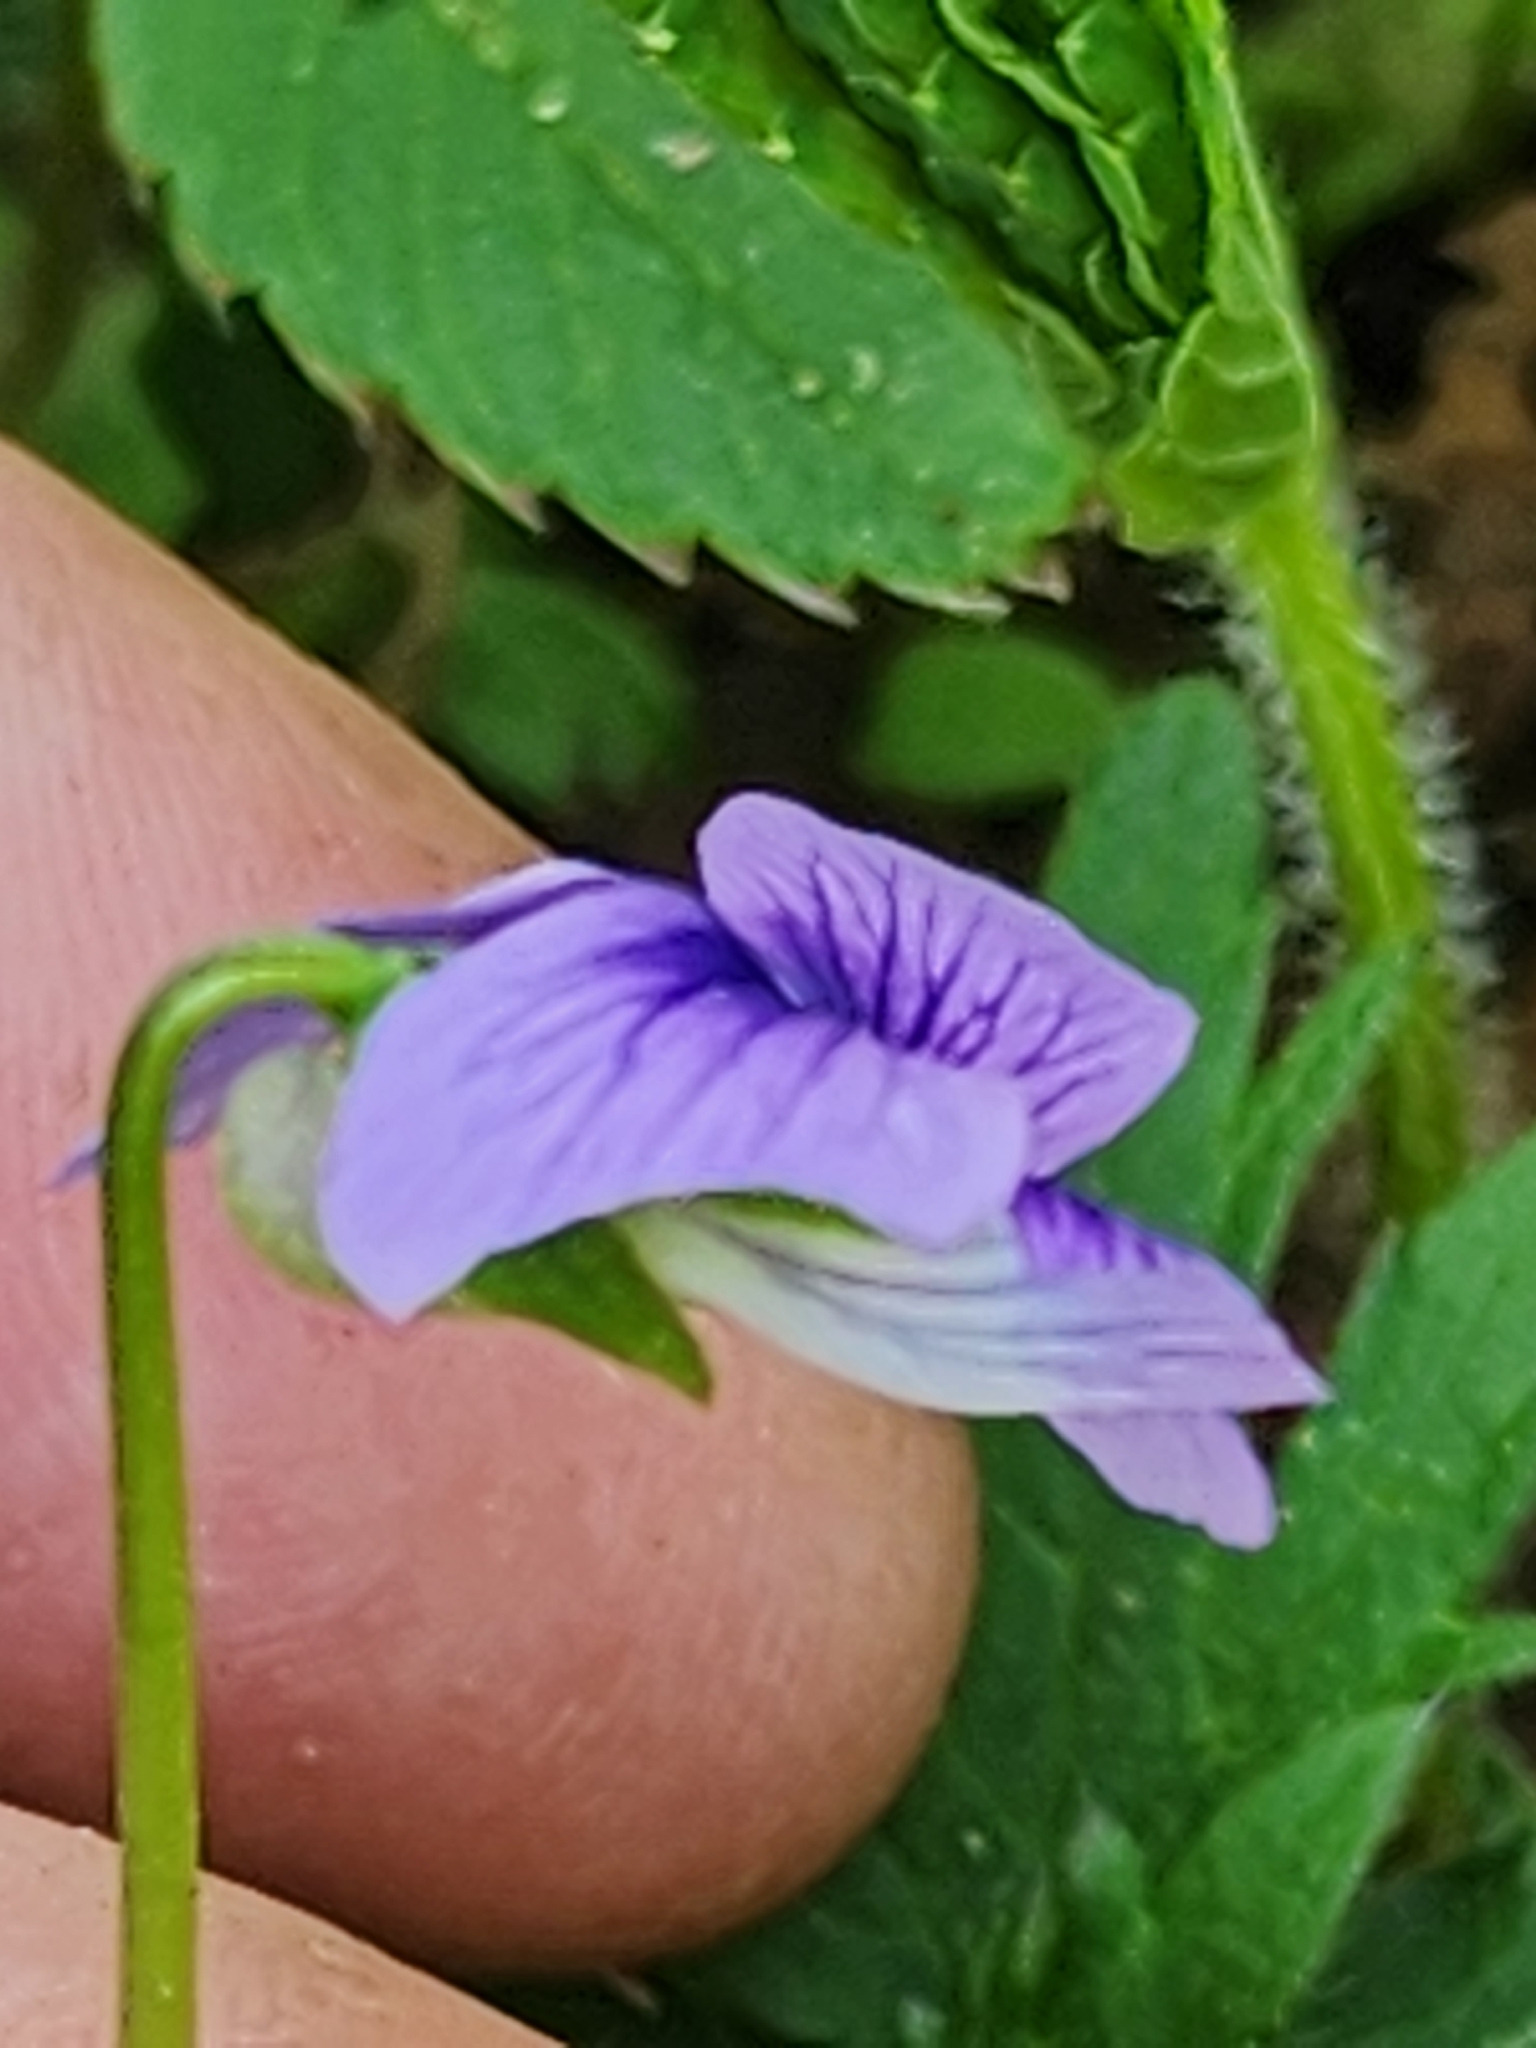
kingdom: Plantae
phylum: Tracheophyta
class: Magnoliopsida
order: Malpighiales
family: Violaceae
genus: Viola
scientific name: Viola cucullata
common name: Marsh blue violet
